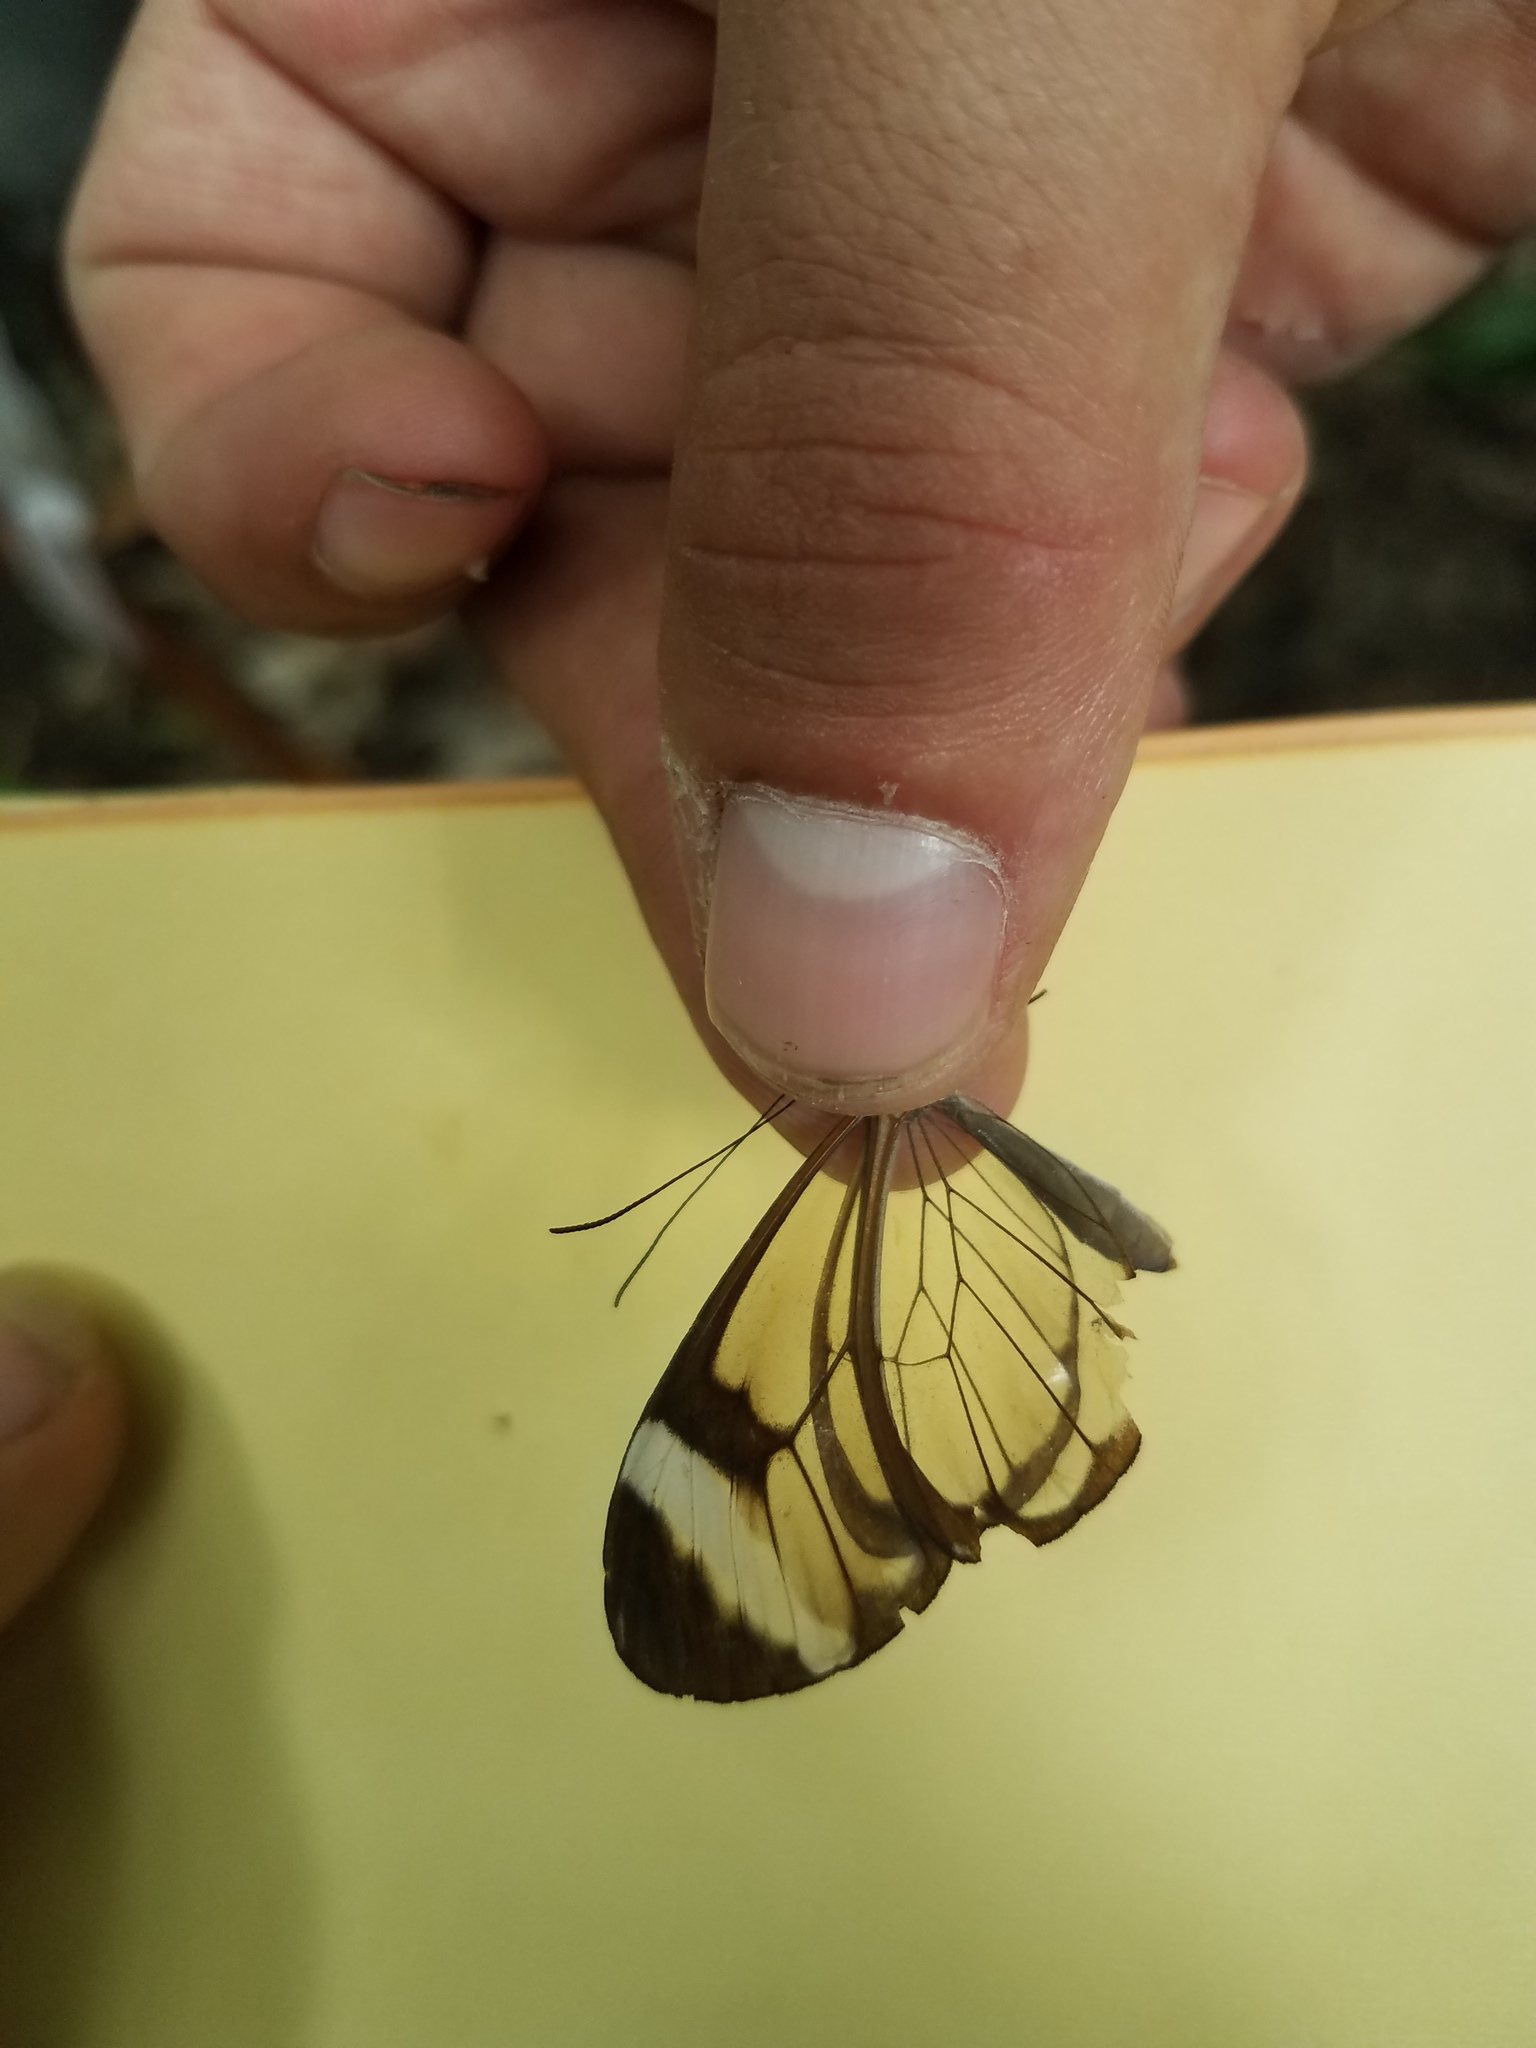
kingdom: Animalia
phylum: Arthropoda
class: Insecta
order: Lepidoptera
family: Nymphalidae
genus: Greta
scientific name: Greta morgane
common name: Thick-tipped greta
